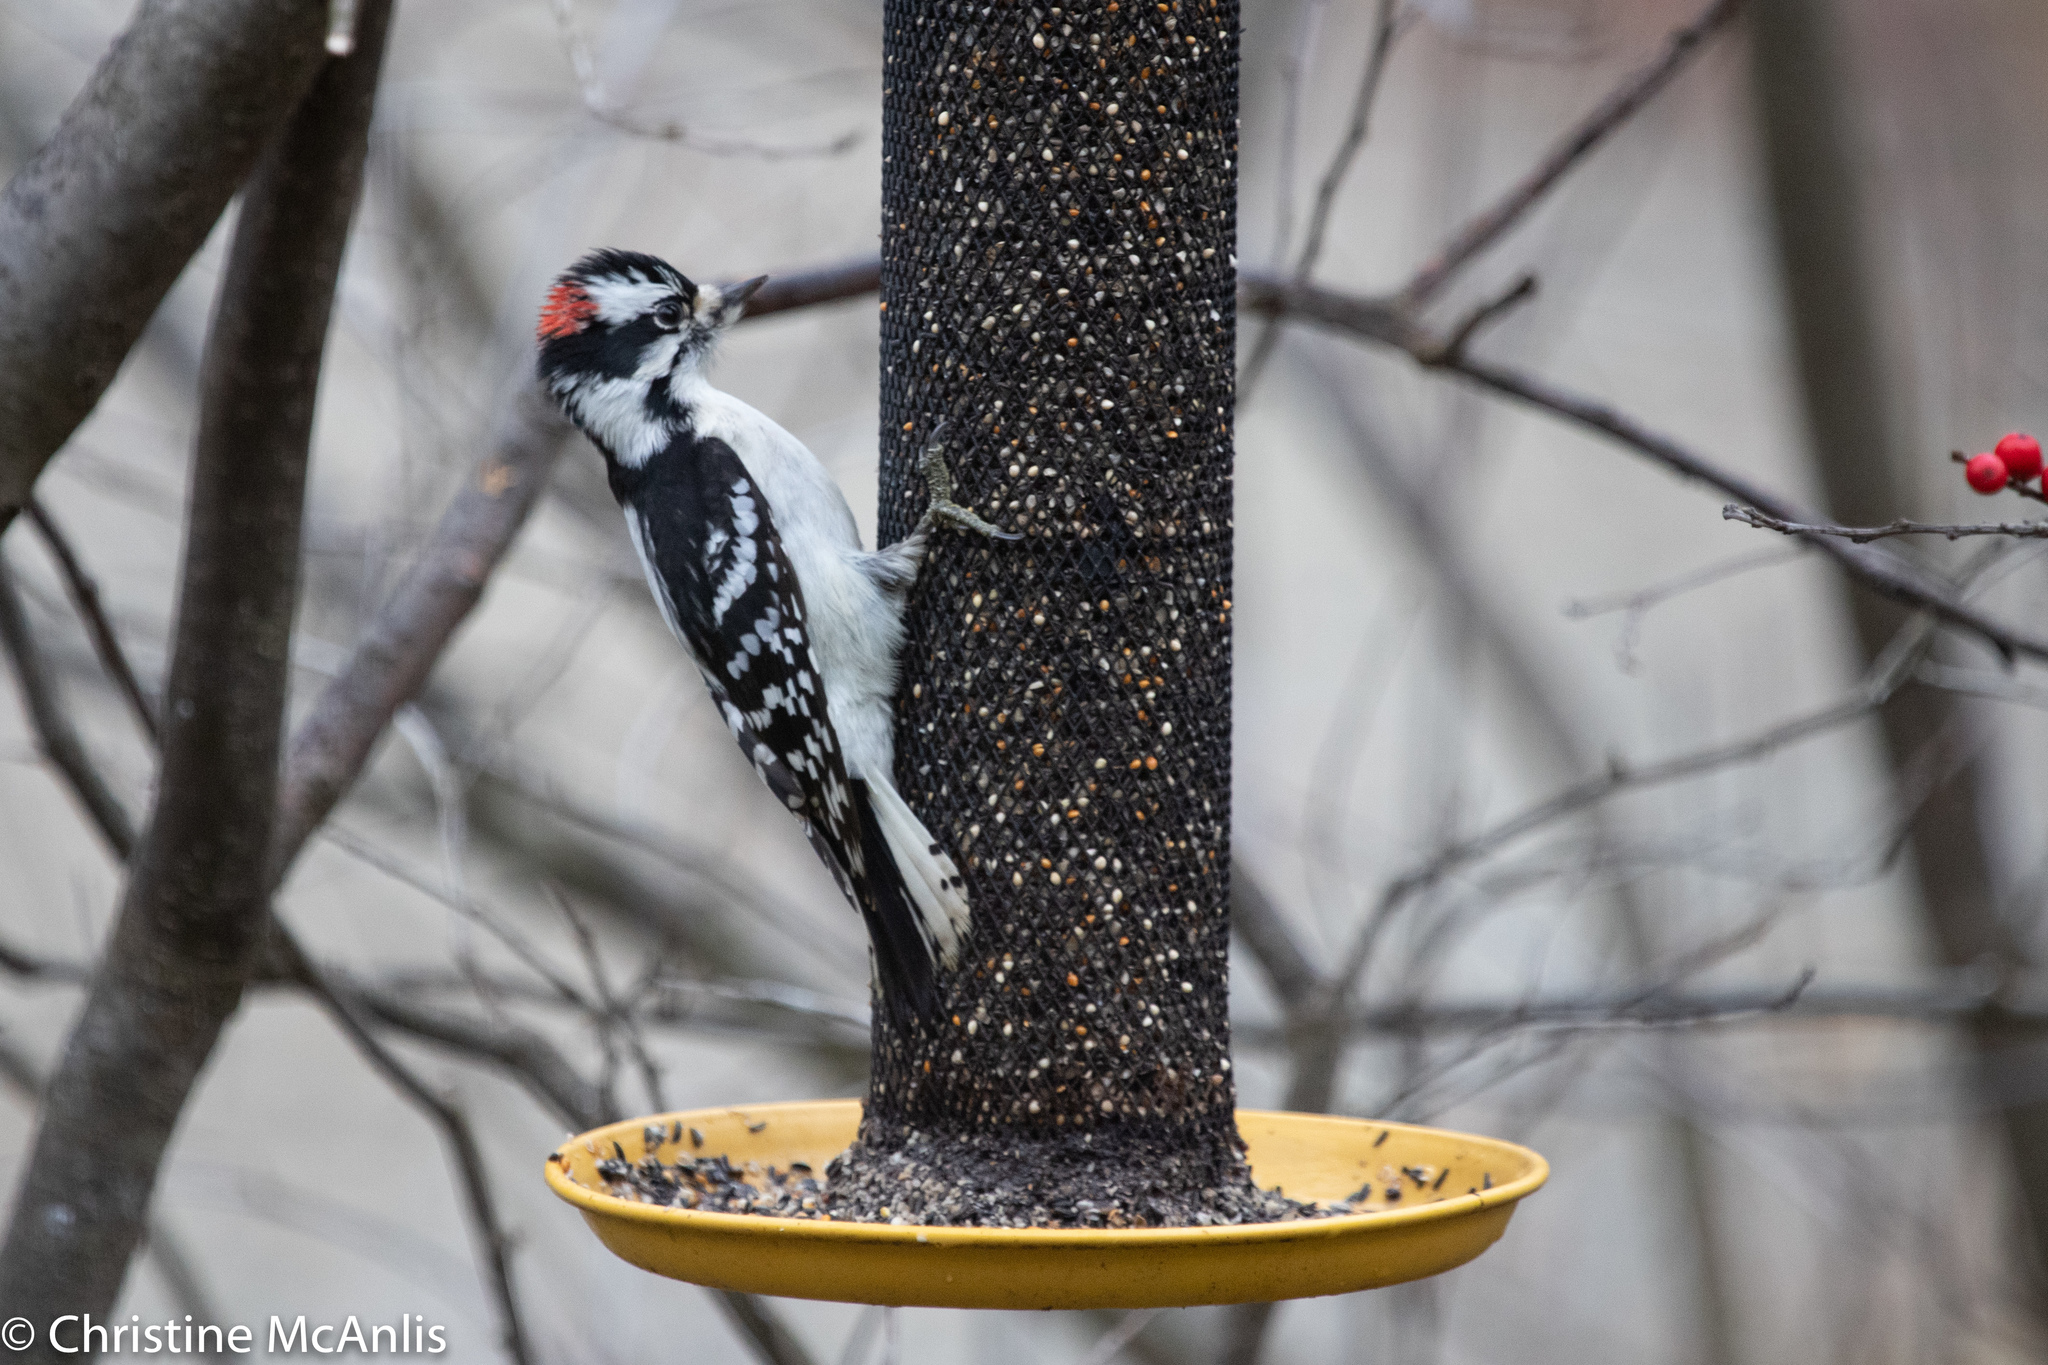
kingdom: Animalia
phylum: Chordata
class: Aves
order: Piciformes
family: Picidae
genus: Dryobates
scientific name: Dryobates pubescens
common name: Downy woodpecker
